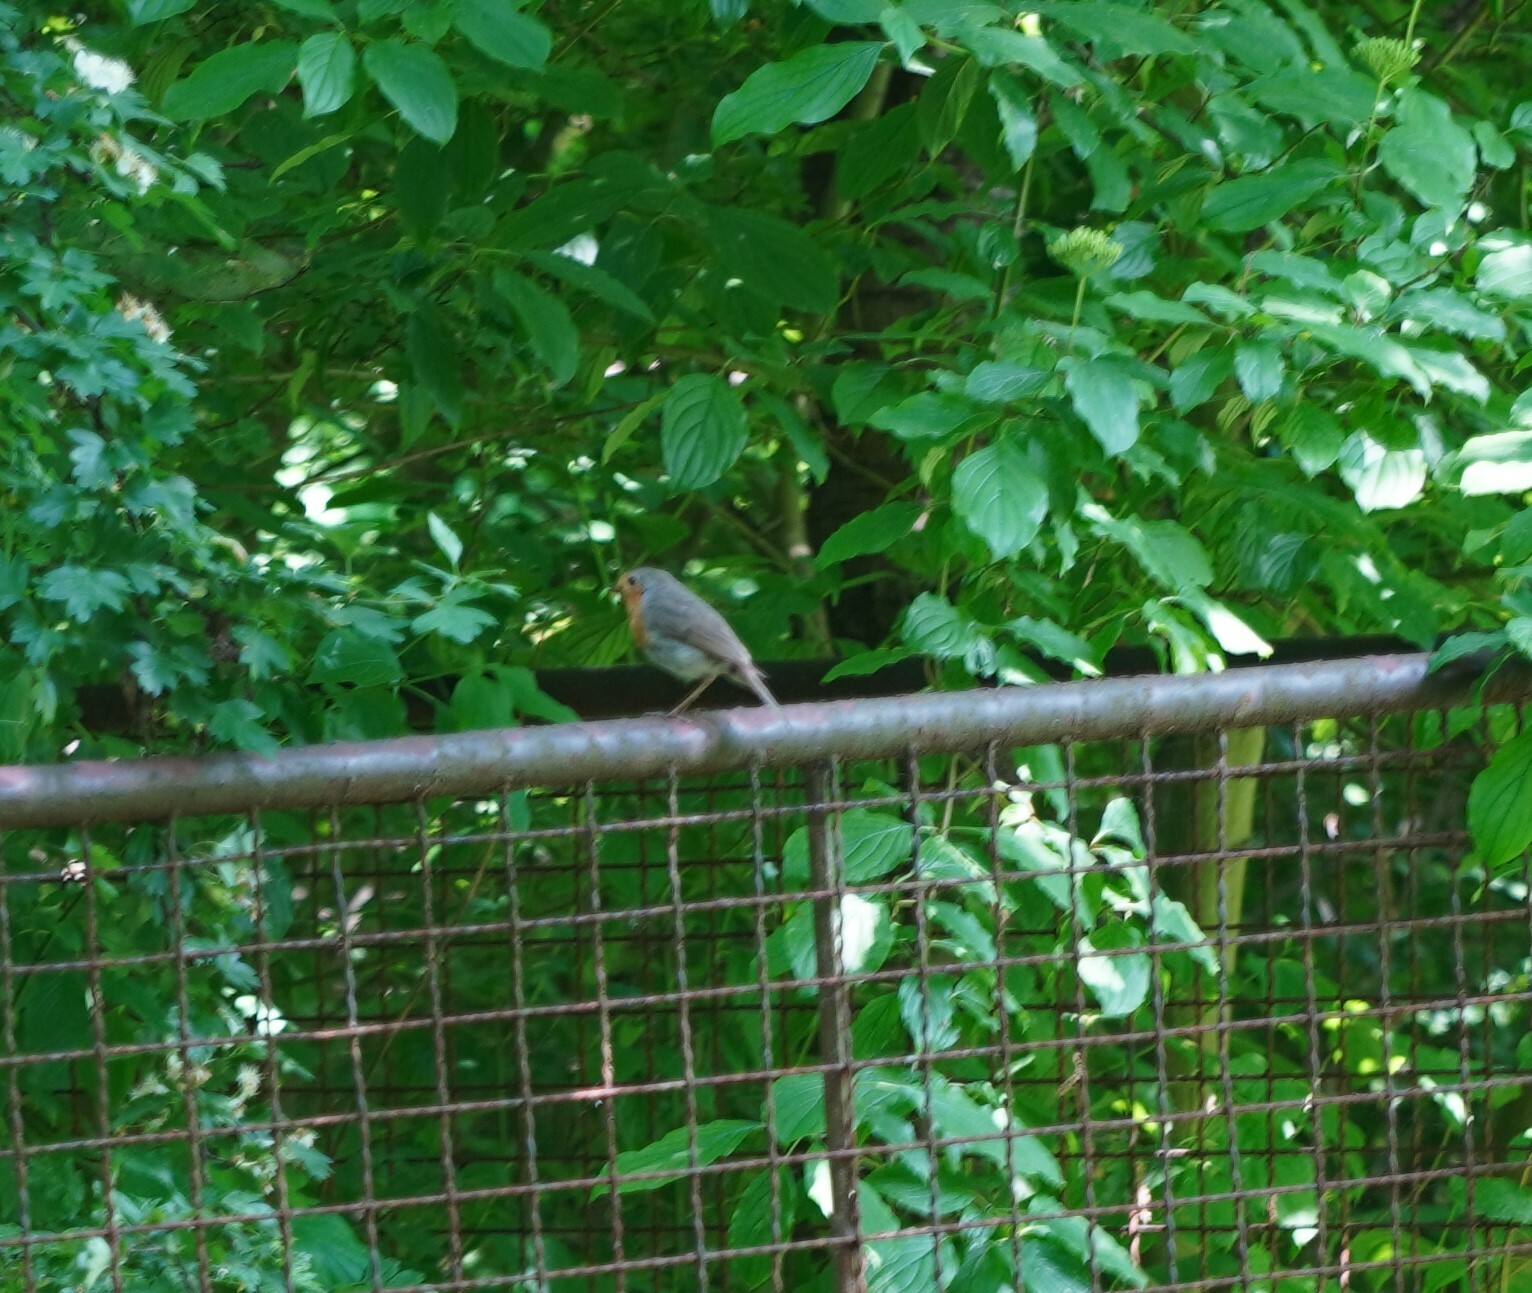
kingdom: Animalia
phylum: Chordata
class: Aves
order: Passeriformes
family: Muscicapidae
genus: Erithacus
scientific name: Erithacus rubecula
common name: European robin
